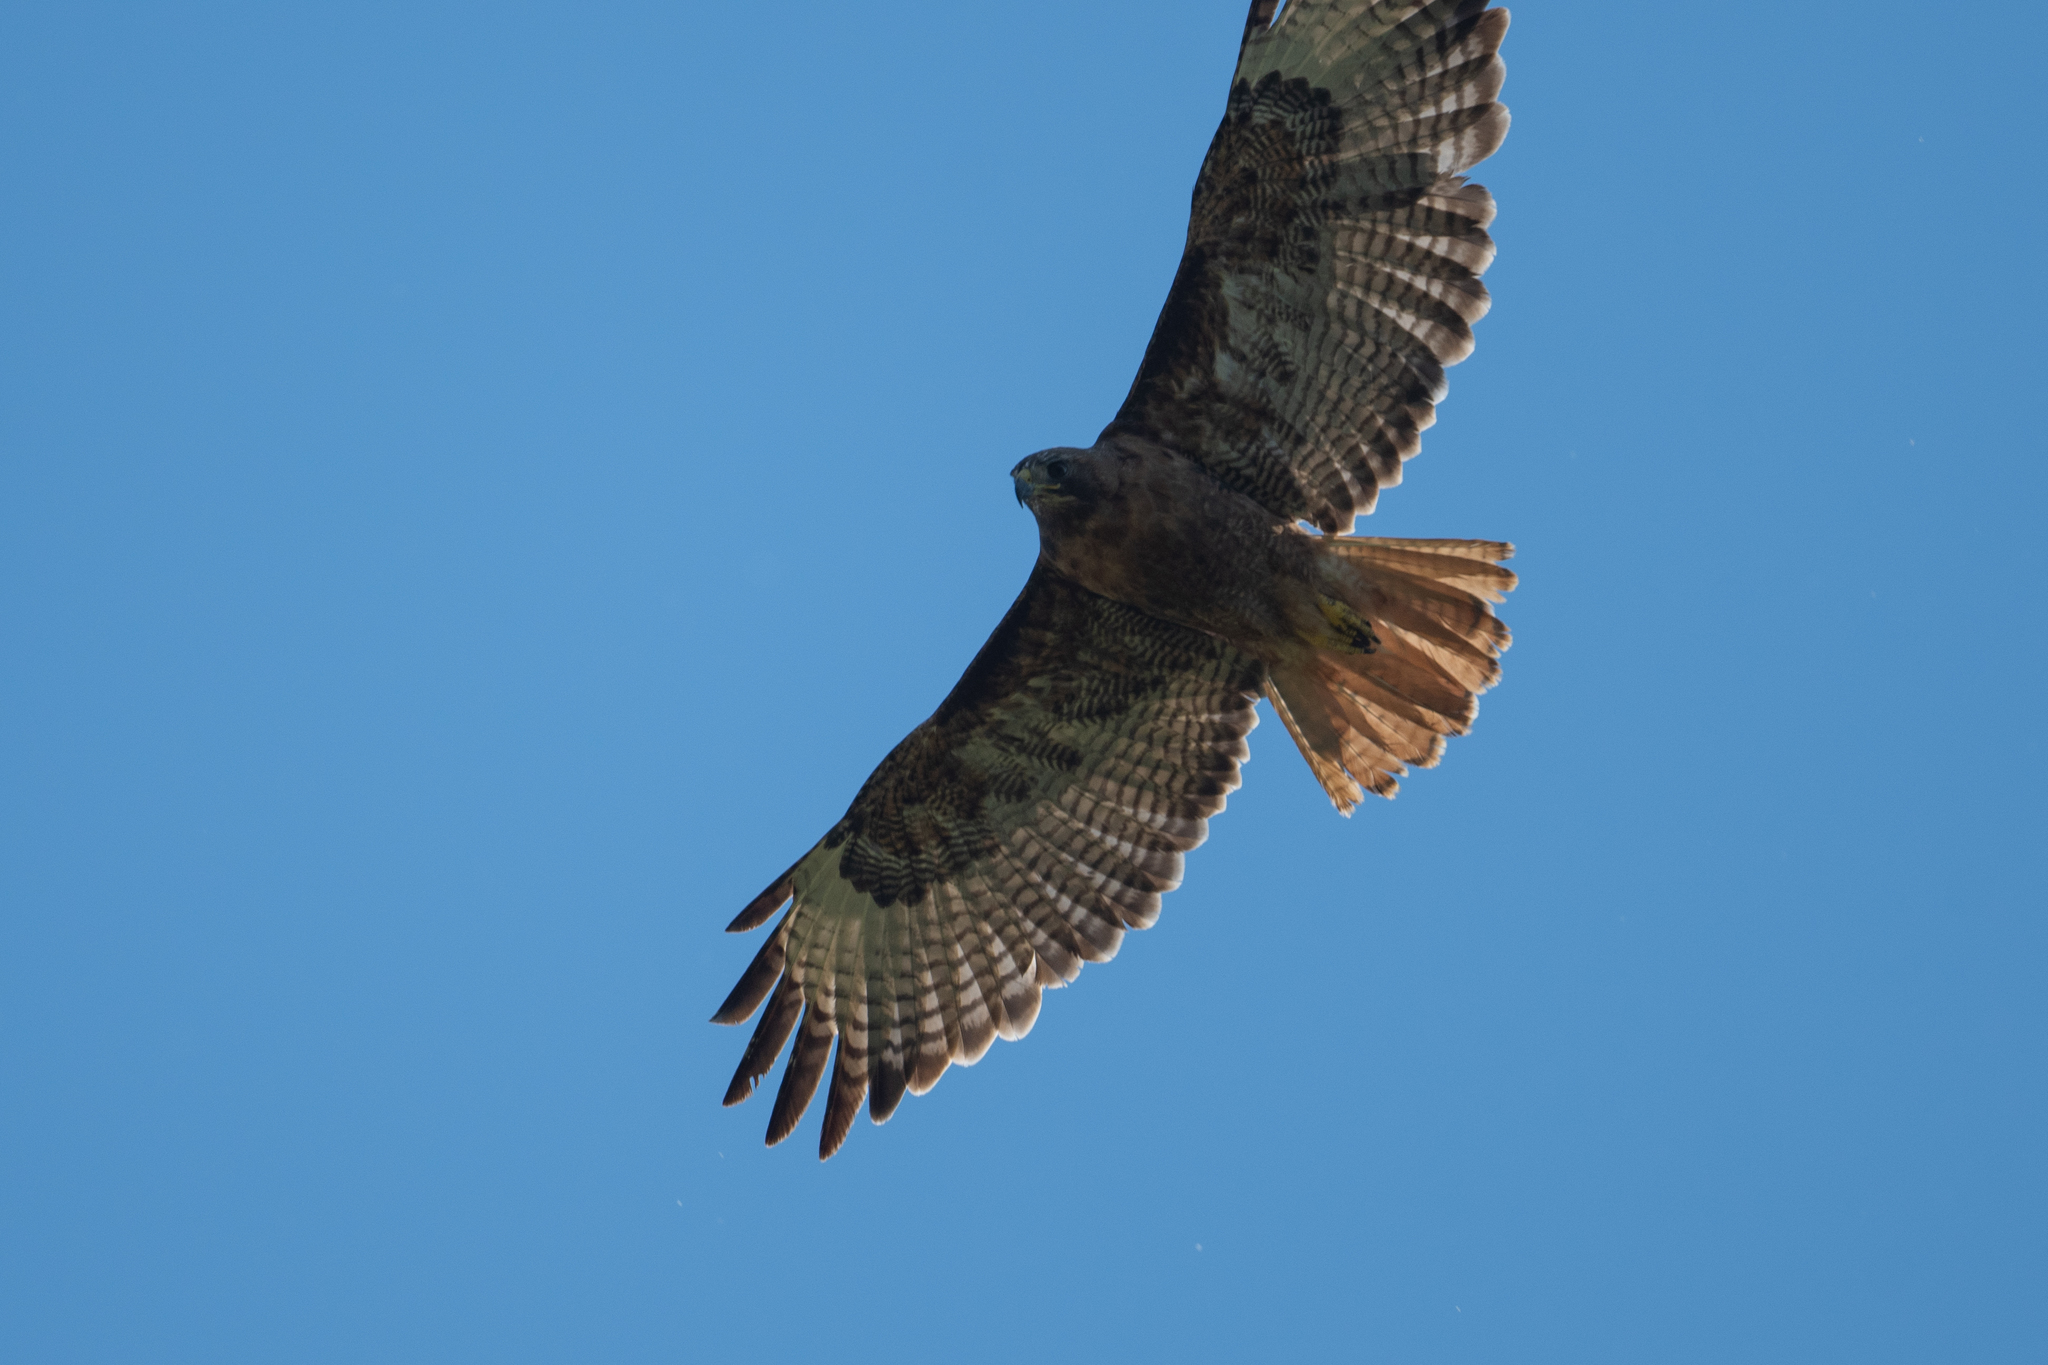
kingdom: Animalia
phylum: Chordata
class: Aves
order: Accipitriformes
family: Accipitridae
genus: Buteo
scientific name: Buteo jamaicensis
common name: Red-tailed hawk
